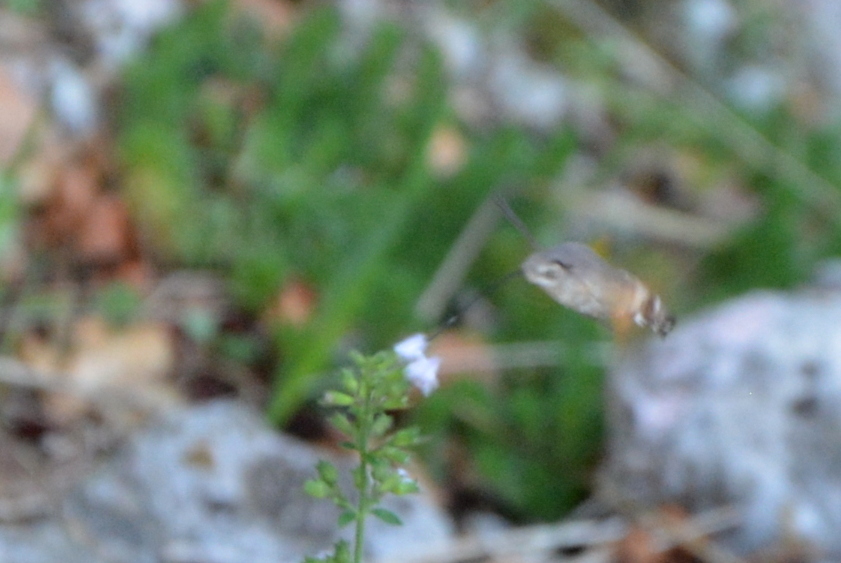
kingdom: Animalia
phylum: Arthropoda
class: Insecta
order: Lepidoptera
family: Sphingidae
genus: Macroglossum
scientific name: Macroglossum stellatarum
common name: Humming-bird hawk-moth
